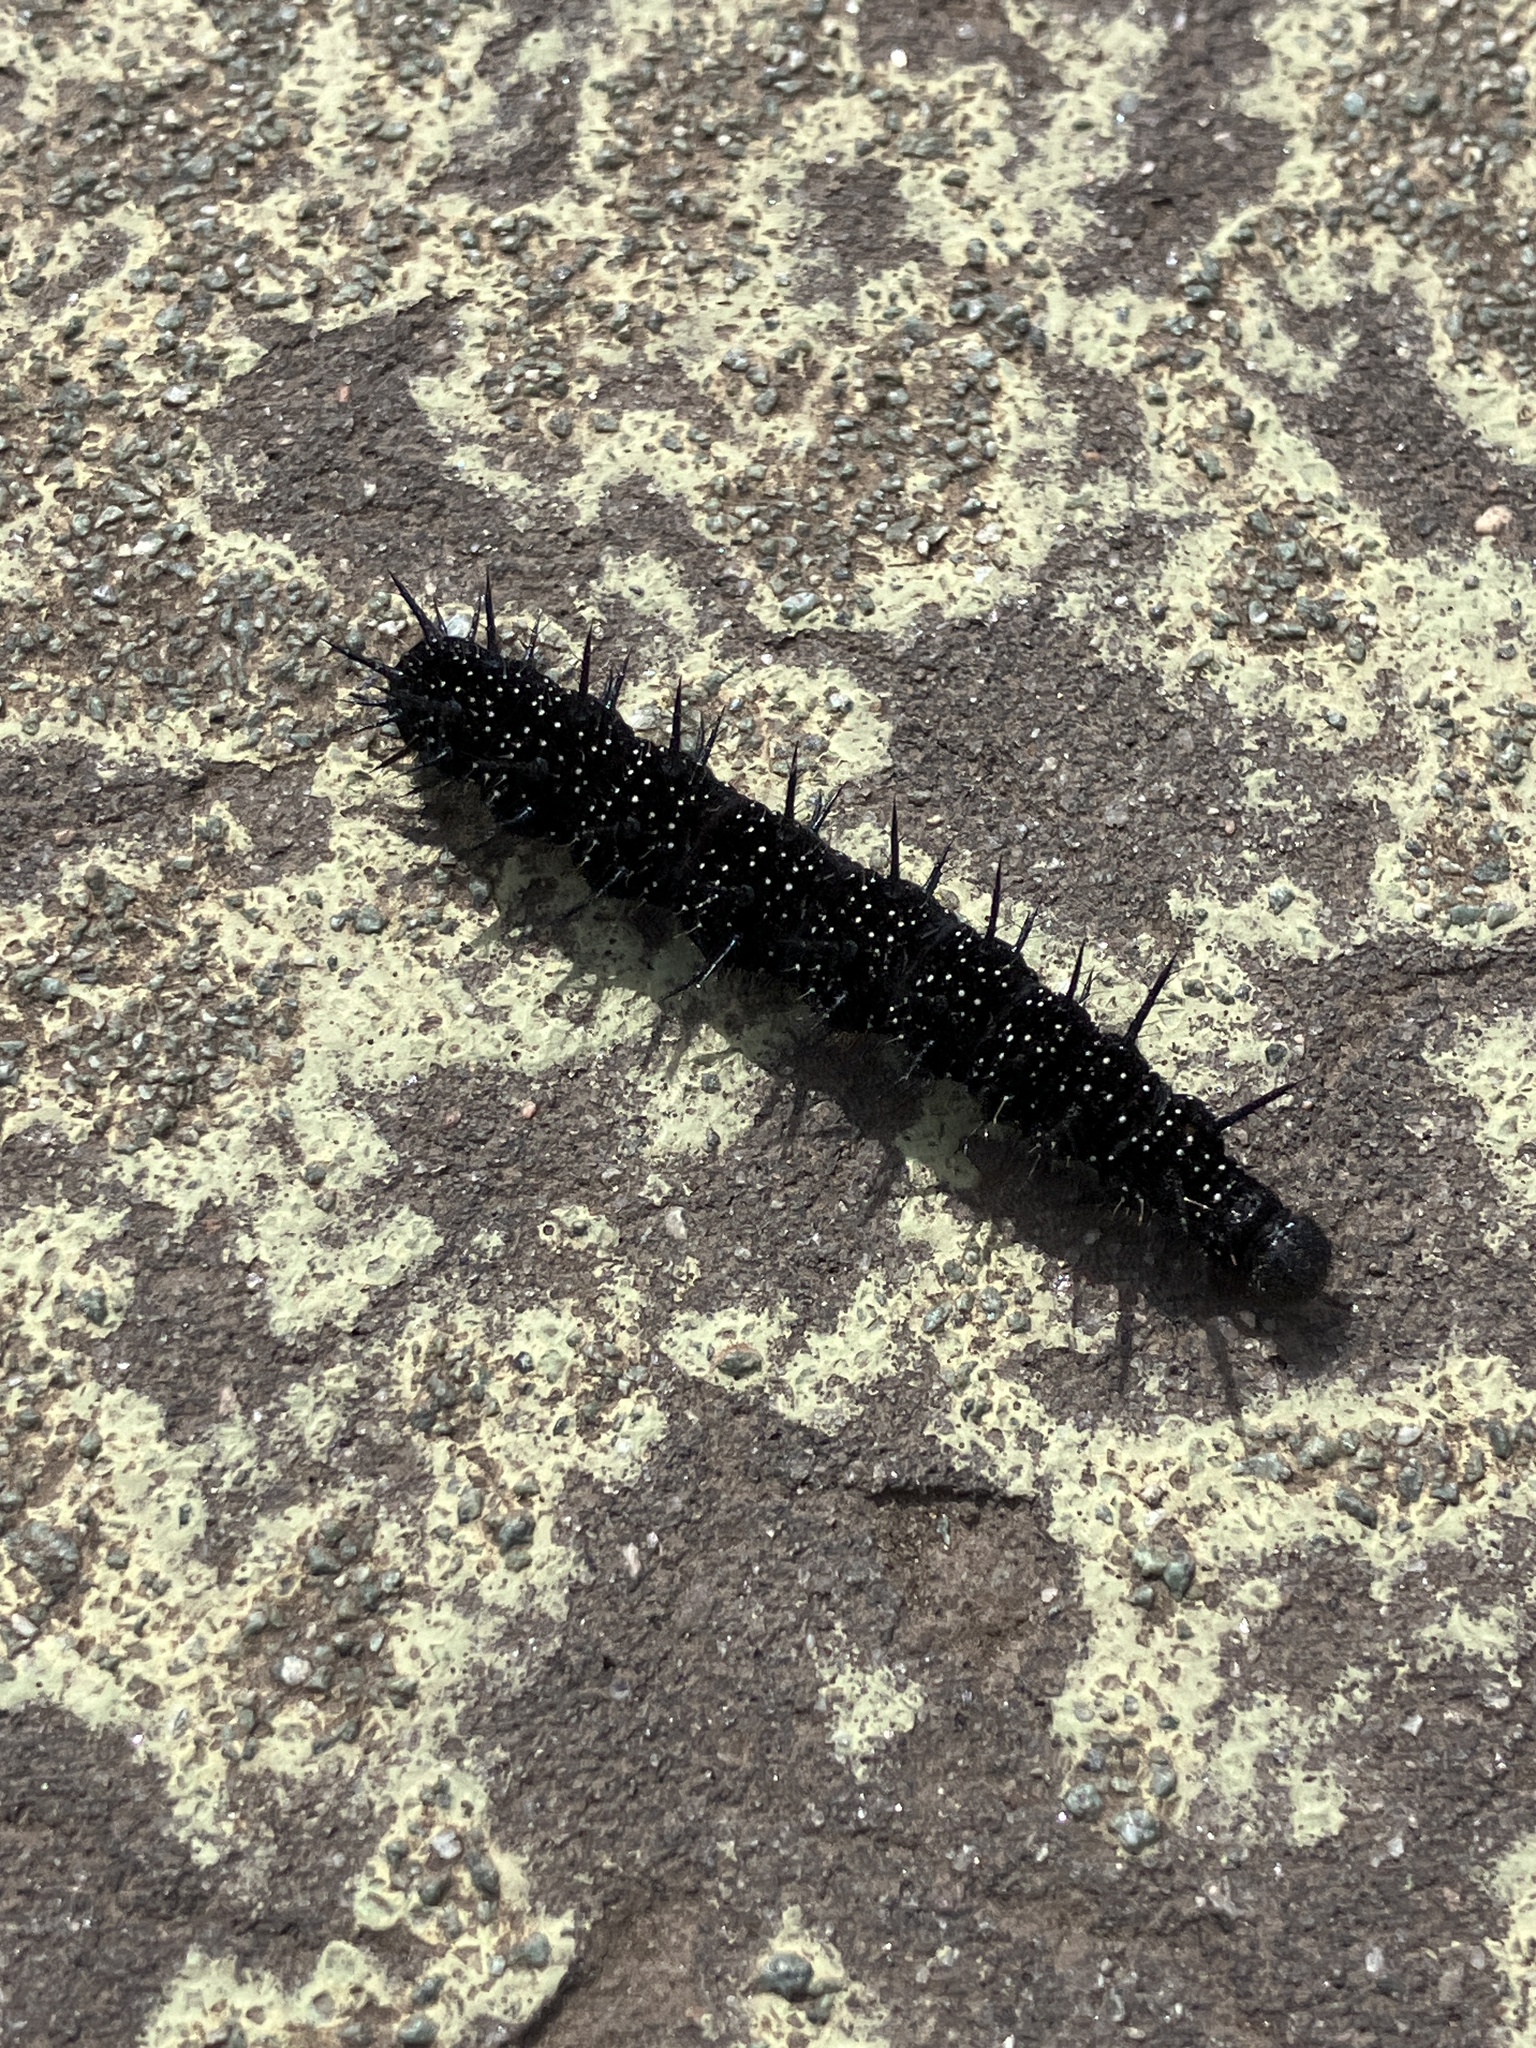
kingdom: Animalia
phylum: Arthropoda
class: Insecta
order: Lepidoptera
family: Nymphalidae
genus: Aglais
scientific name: Aglais io
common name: Peacock
